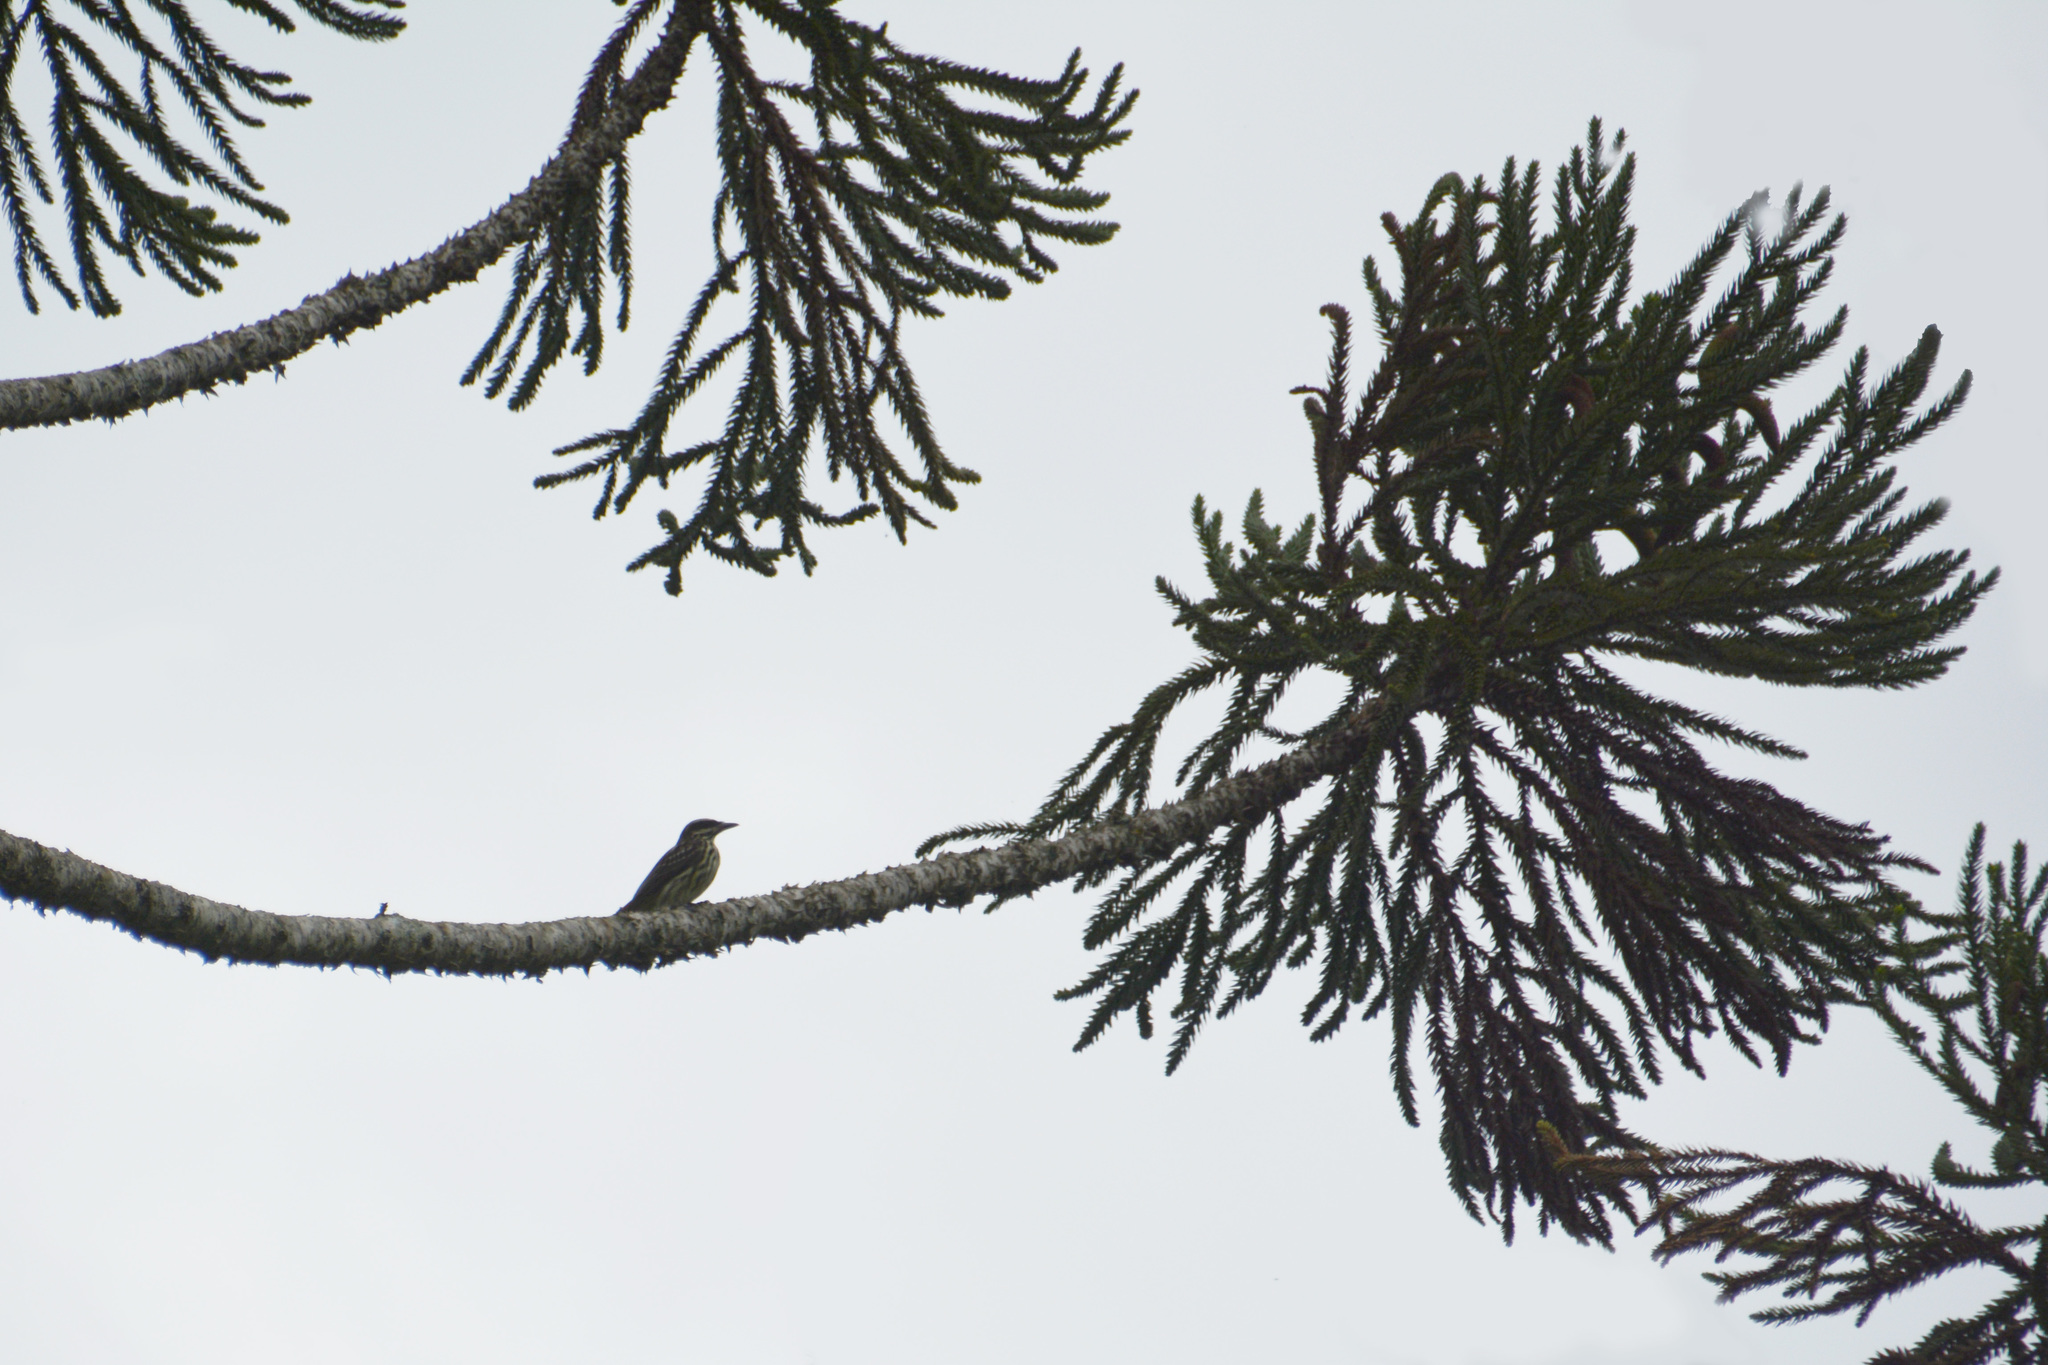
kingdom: Animalia
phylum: Chordata
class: Aves
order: Passeriformes
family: Tyrannidae
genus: Myiodynastes
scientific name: Myiodynastes maculatus
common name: Streaked flycatcher
